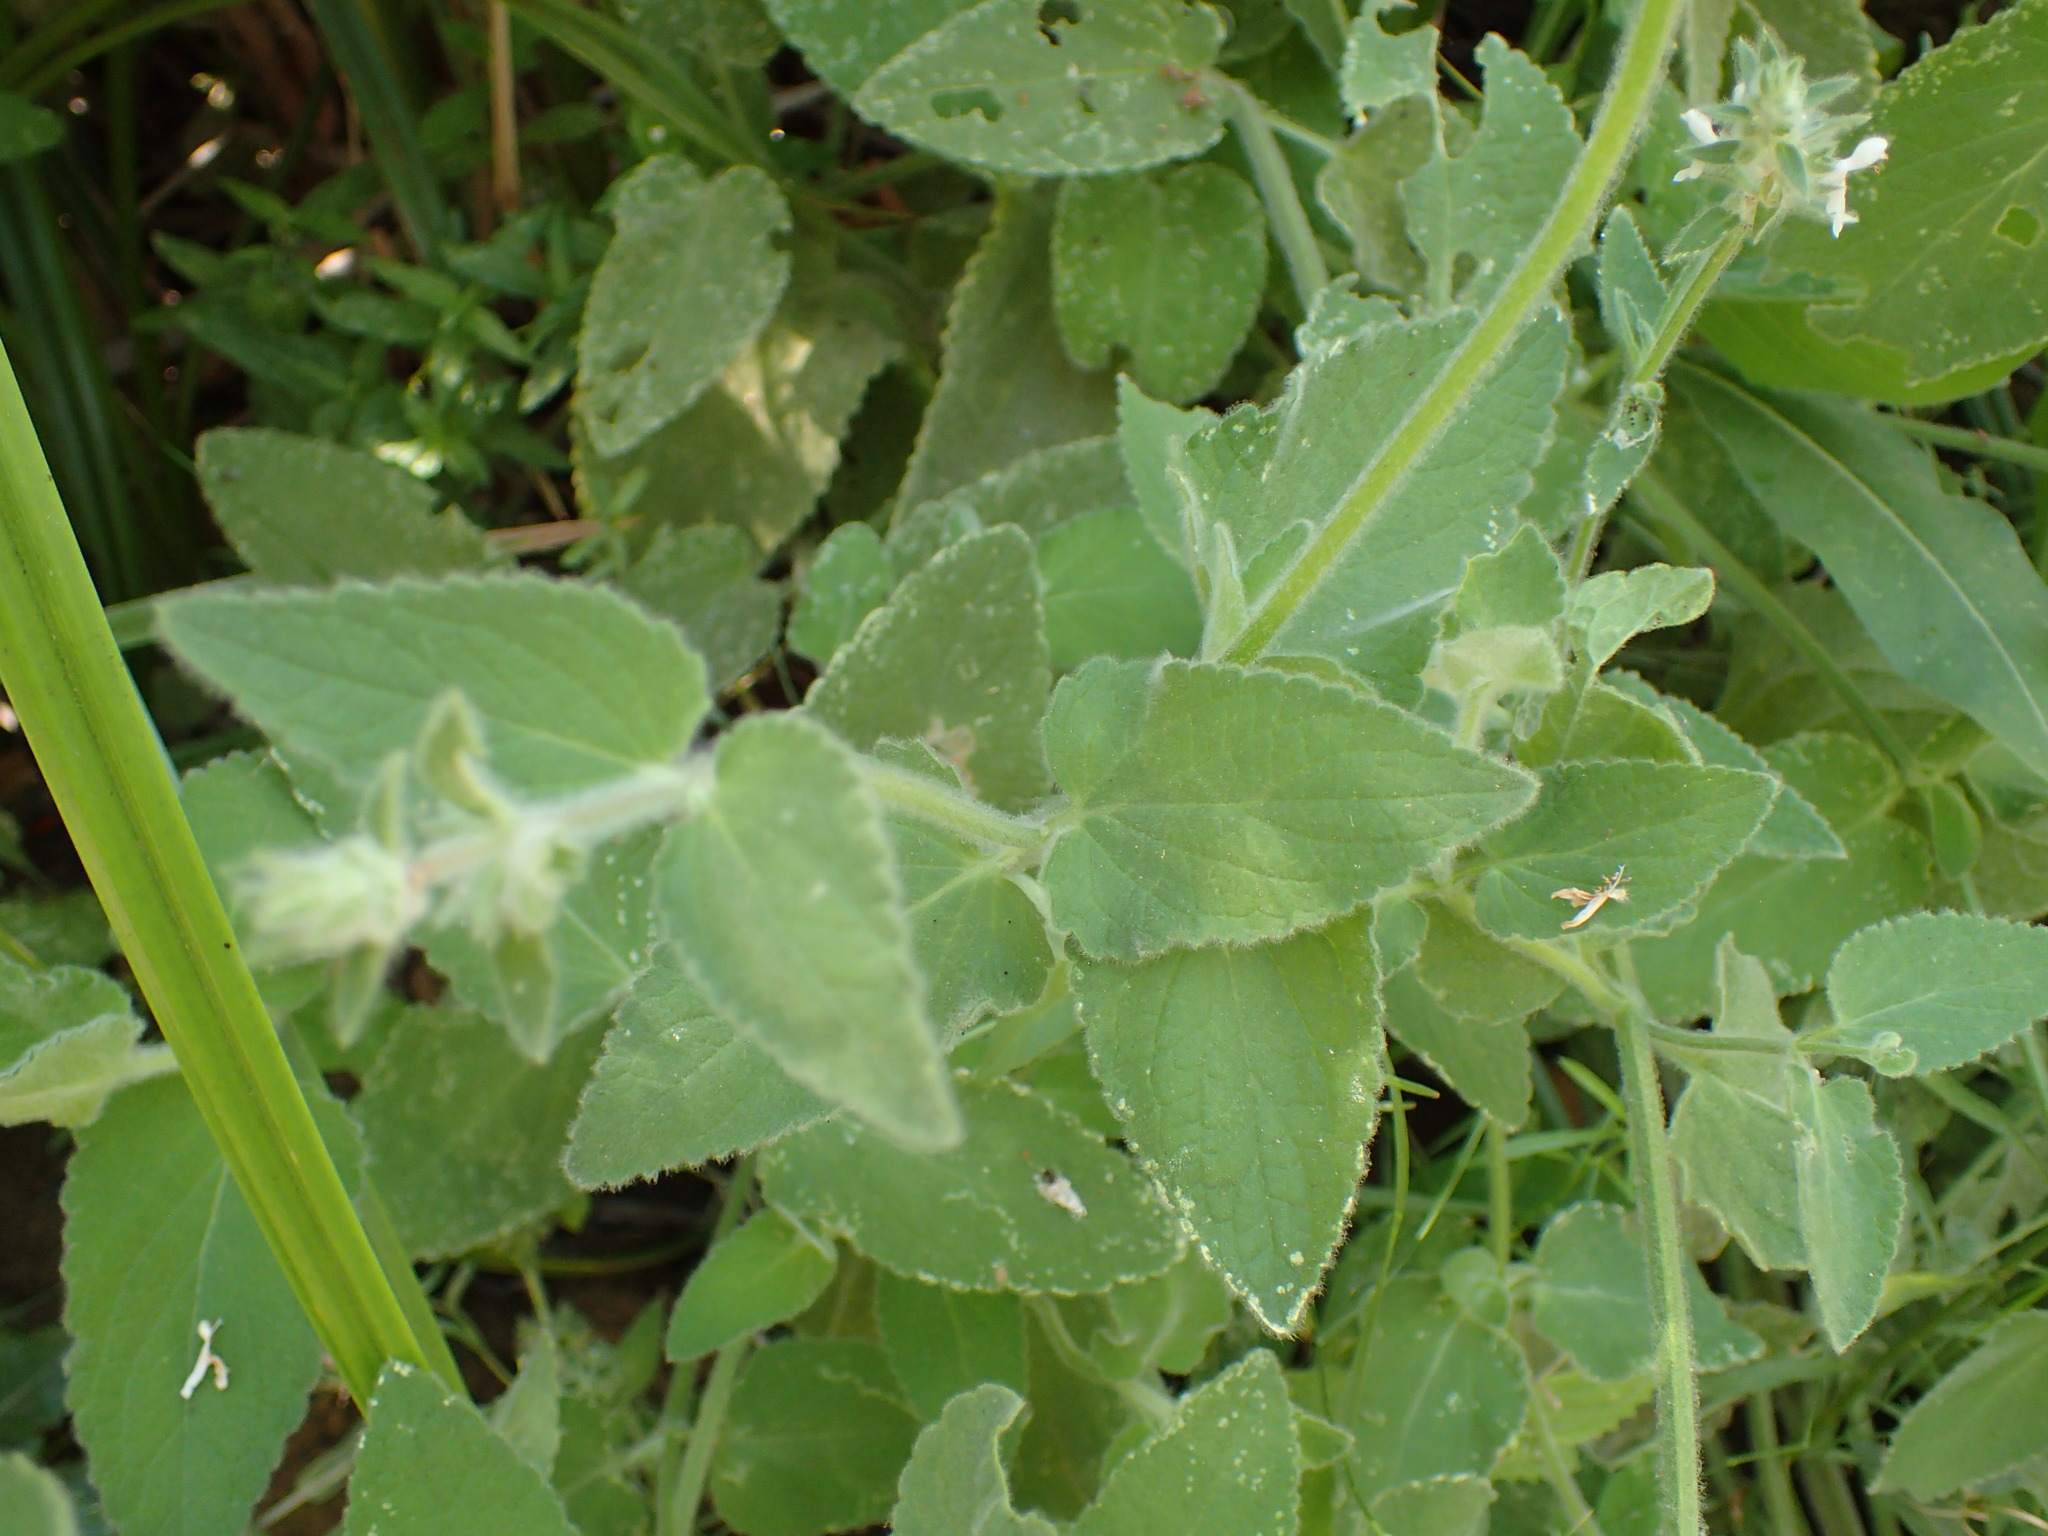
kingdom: Plantae
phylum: Tracheophyta
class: Magnoliopsida
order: Lamiales
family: Lamiaceae
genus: Stachys
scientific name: Stachys albens
